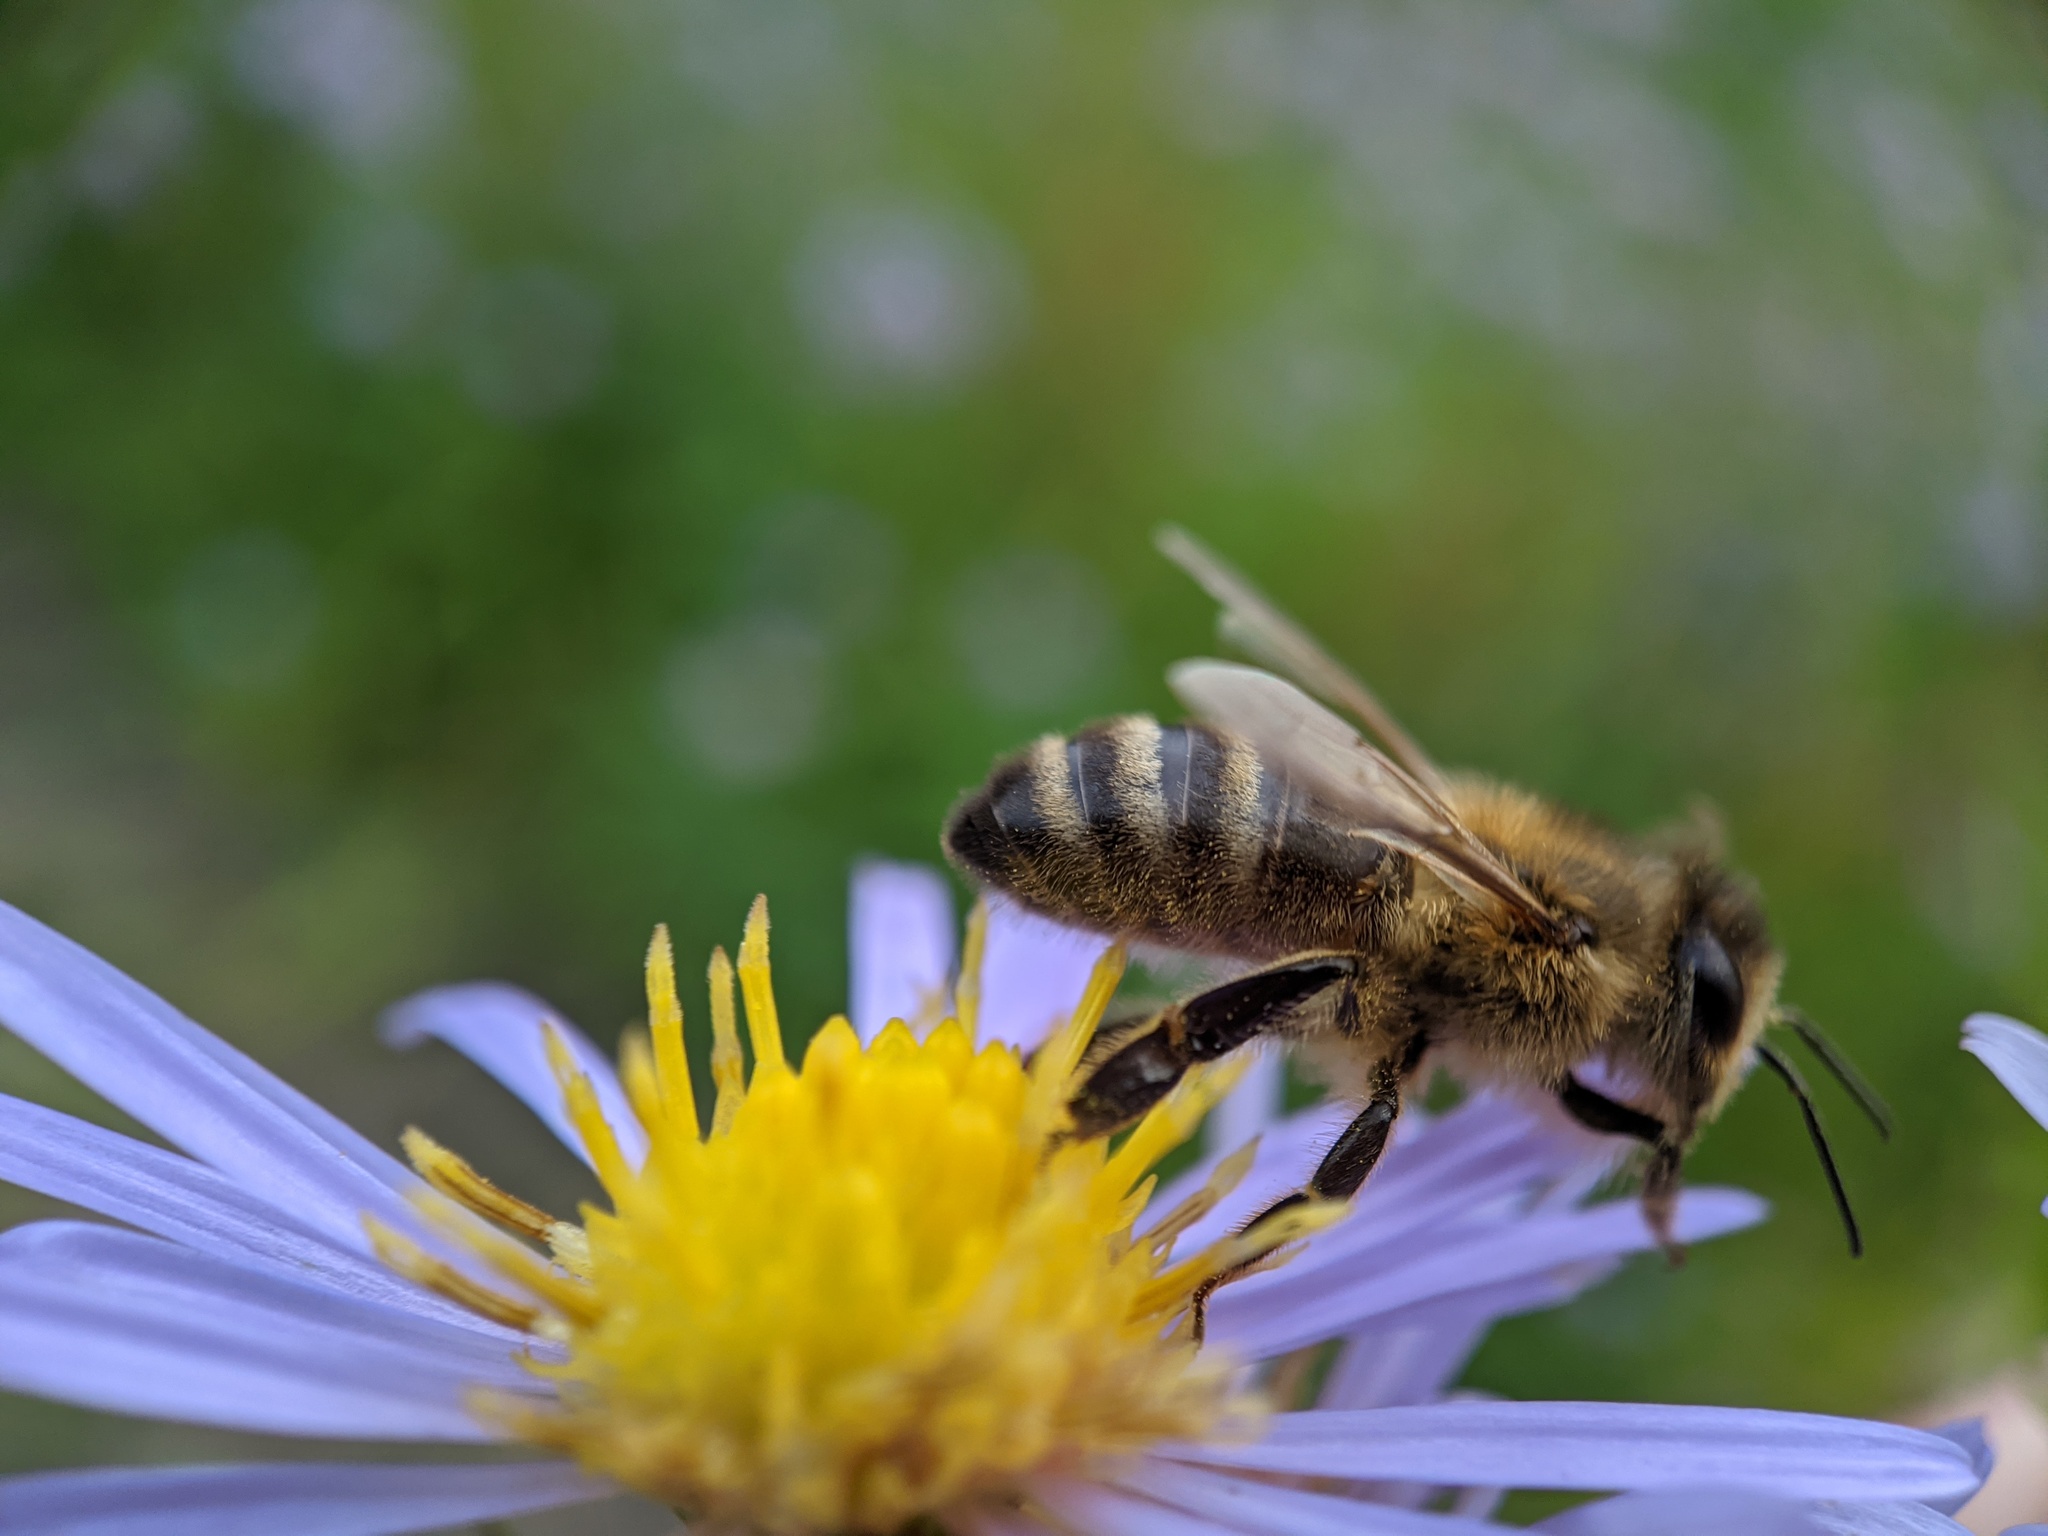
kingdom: Animalia
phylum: Arthropoda
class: Insecta
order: Hymenoptera
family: Apidae
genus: Apis
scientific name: Apis mellifera
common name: Honey bee
